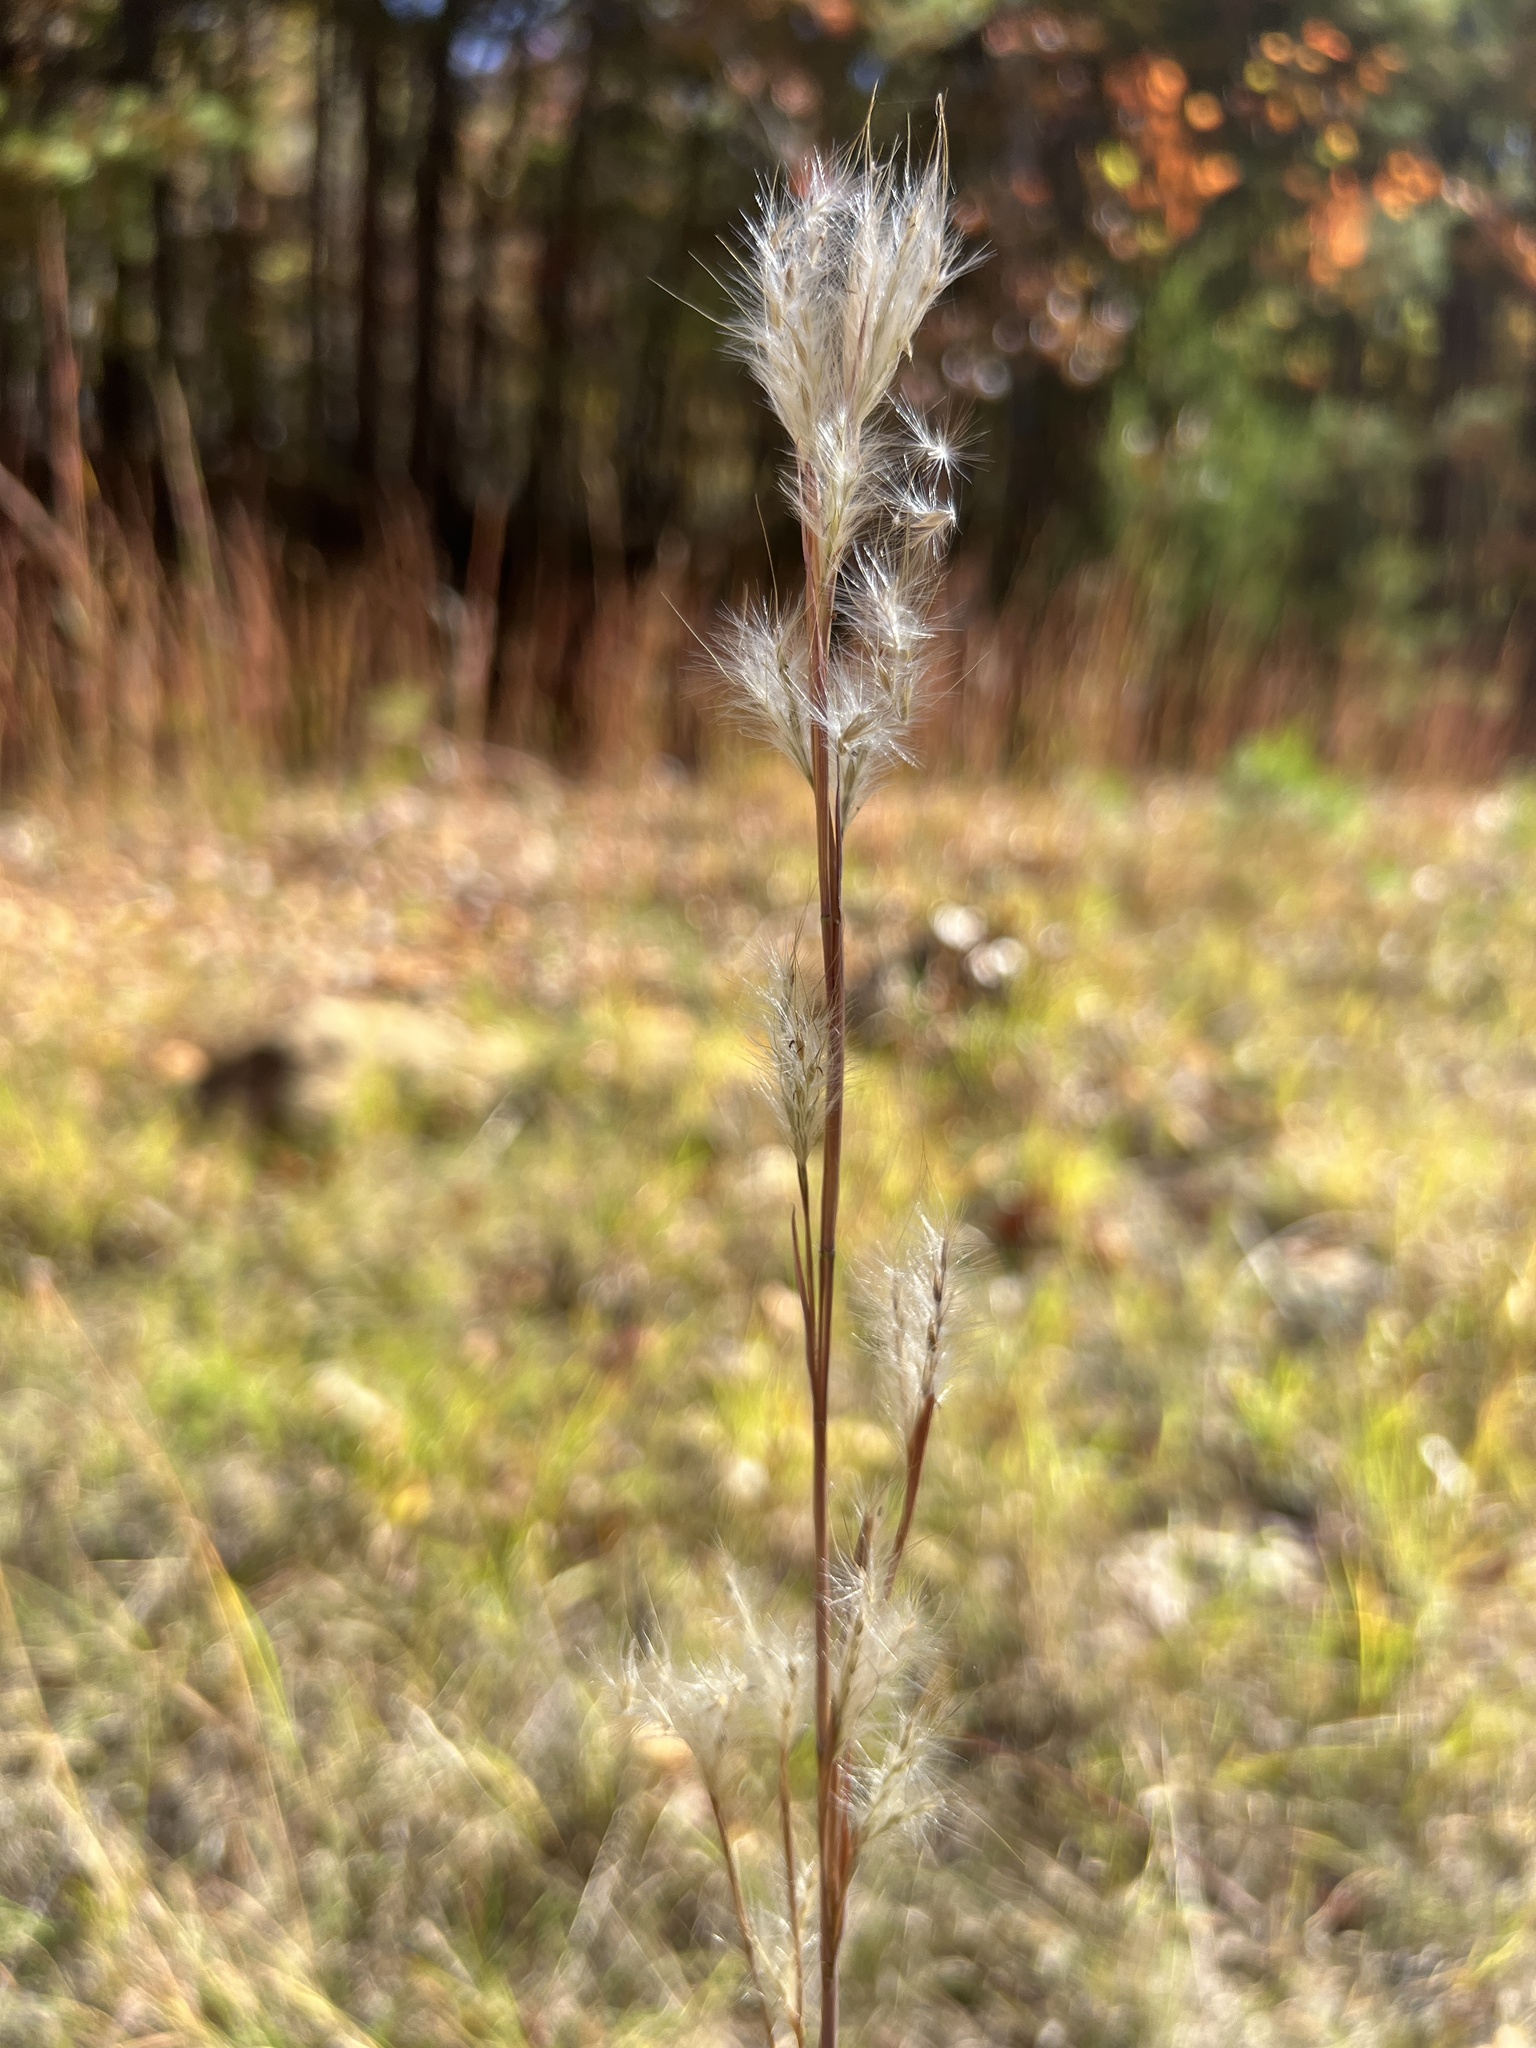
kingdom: Plantae
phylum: Tracheophyta
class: Liliopsida
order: Poales
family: Poaceae
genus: Andropogon
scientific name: Andropogon ternarius
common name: Split bluestem
